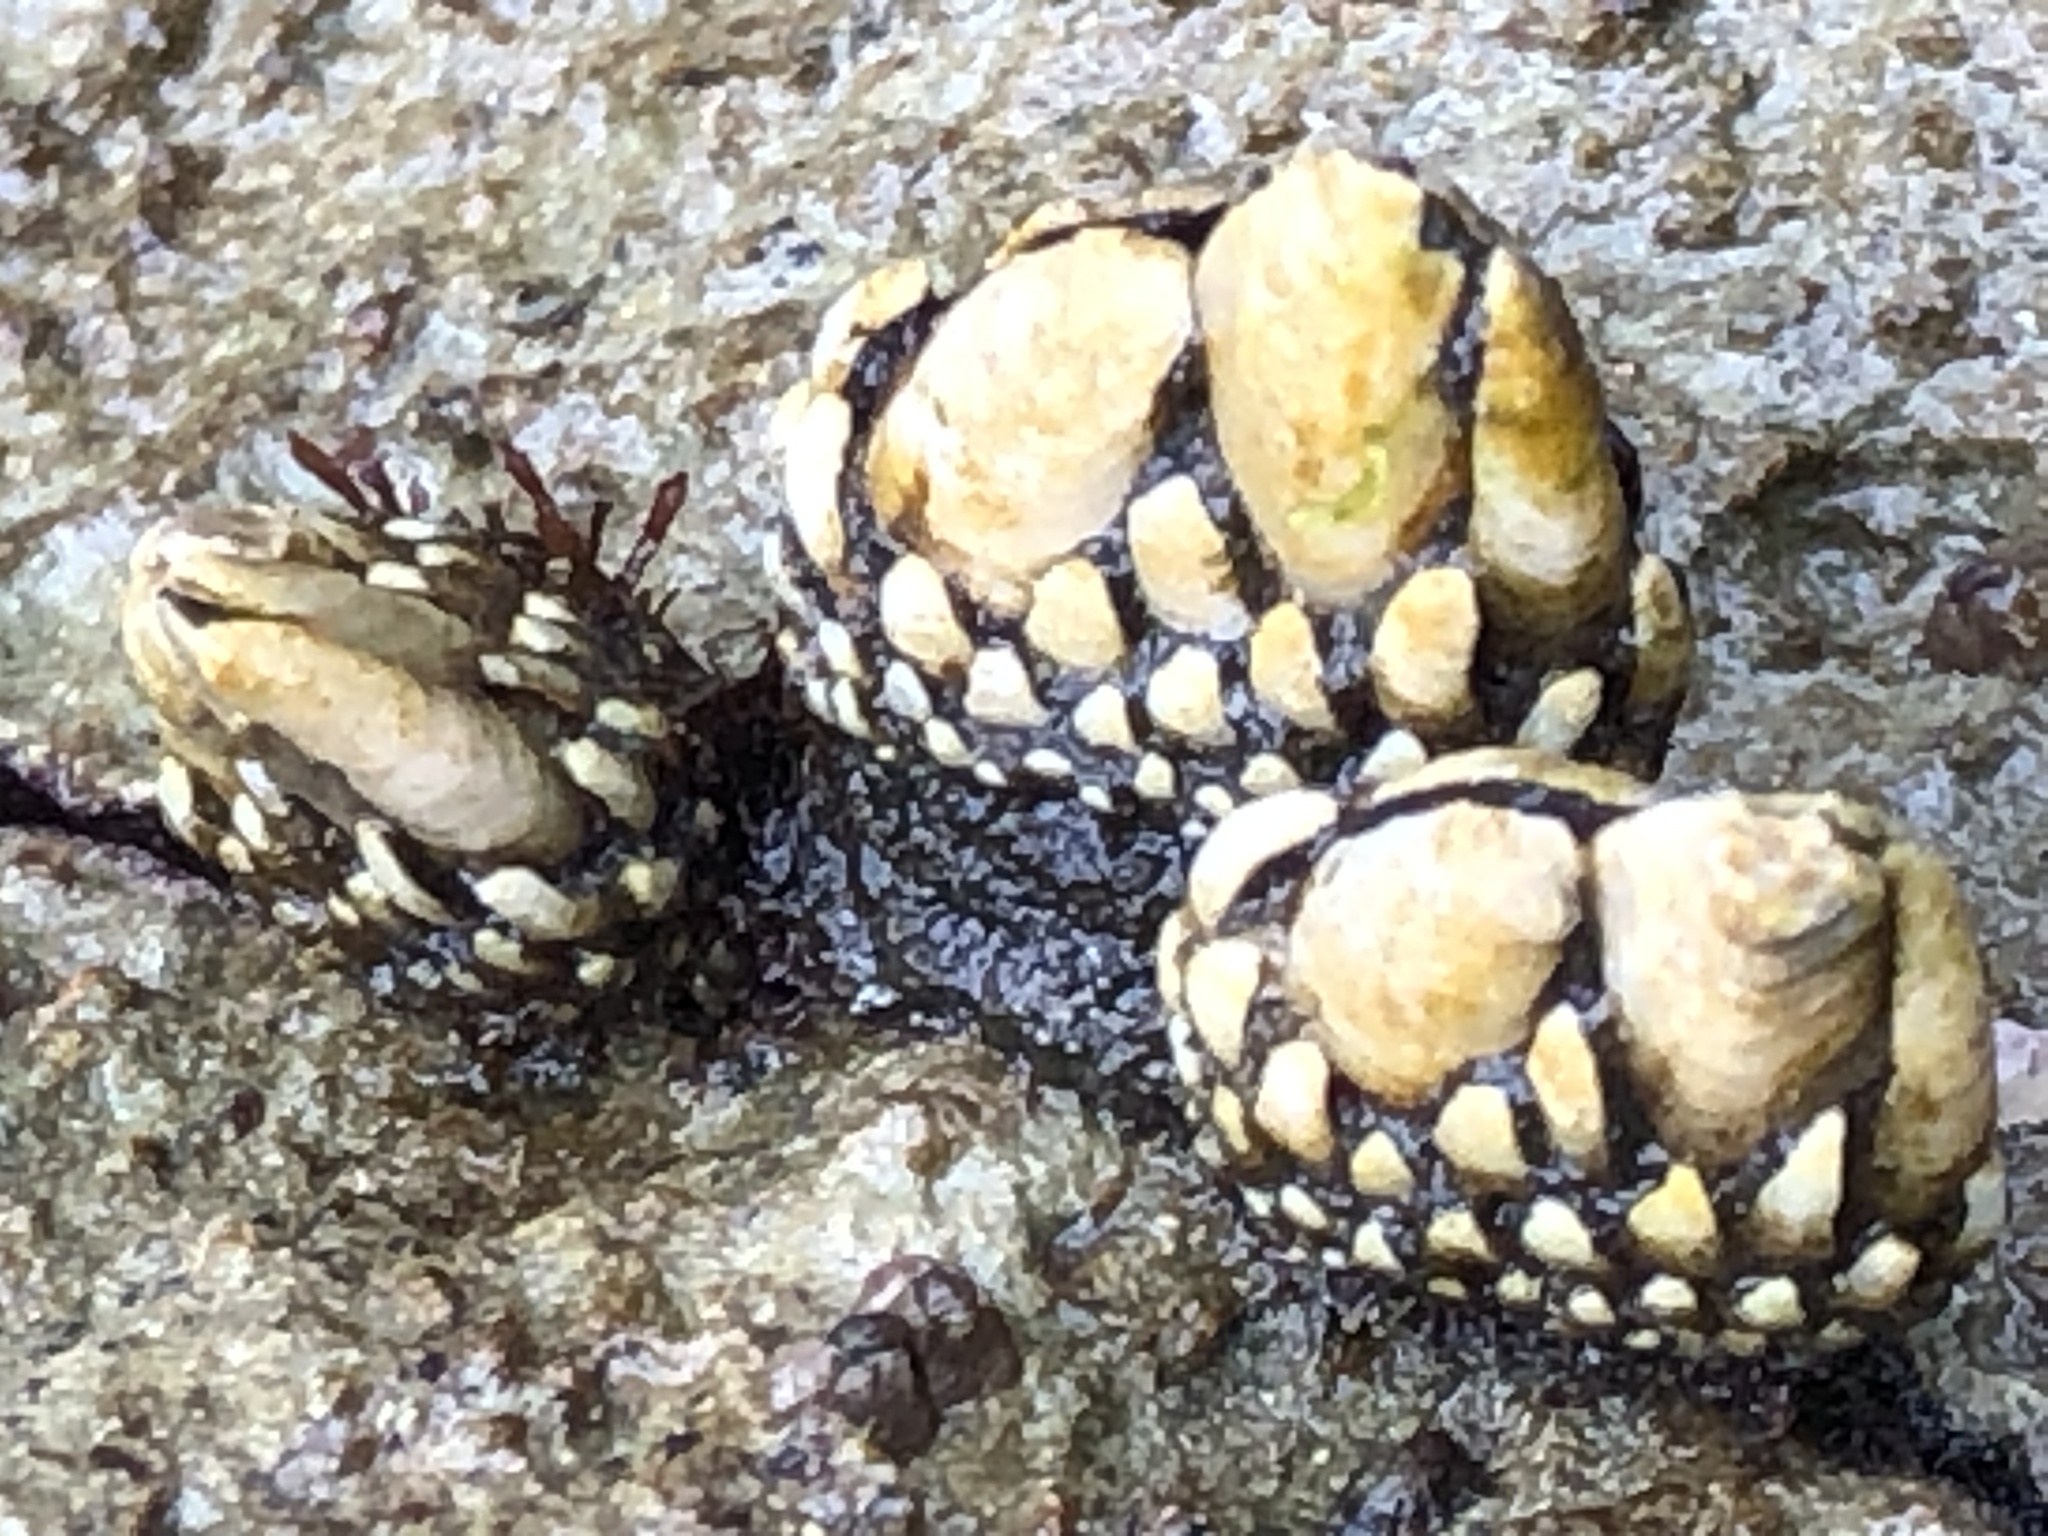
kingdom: Animalia
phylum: Arthropoda
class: Maxillopoda
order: Pedunculata
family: Pollicipedidae
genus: Pollicipes
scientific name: Pollicipes polymerus
